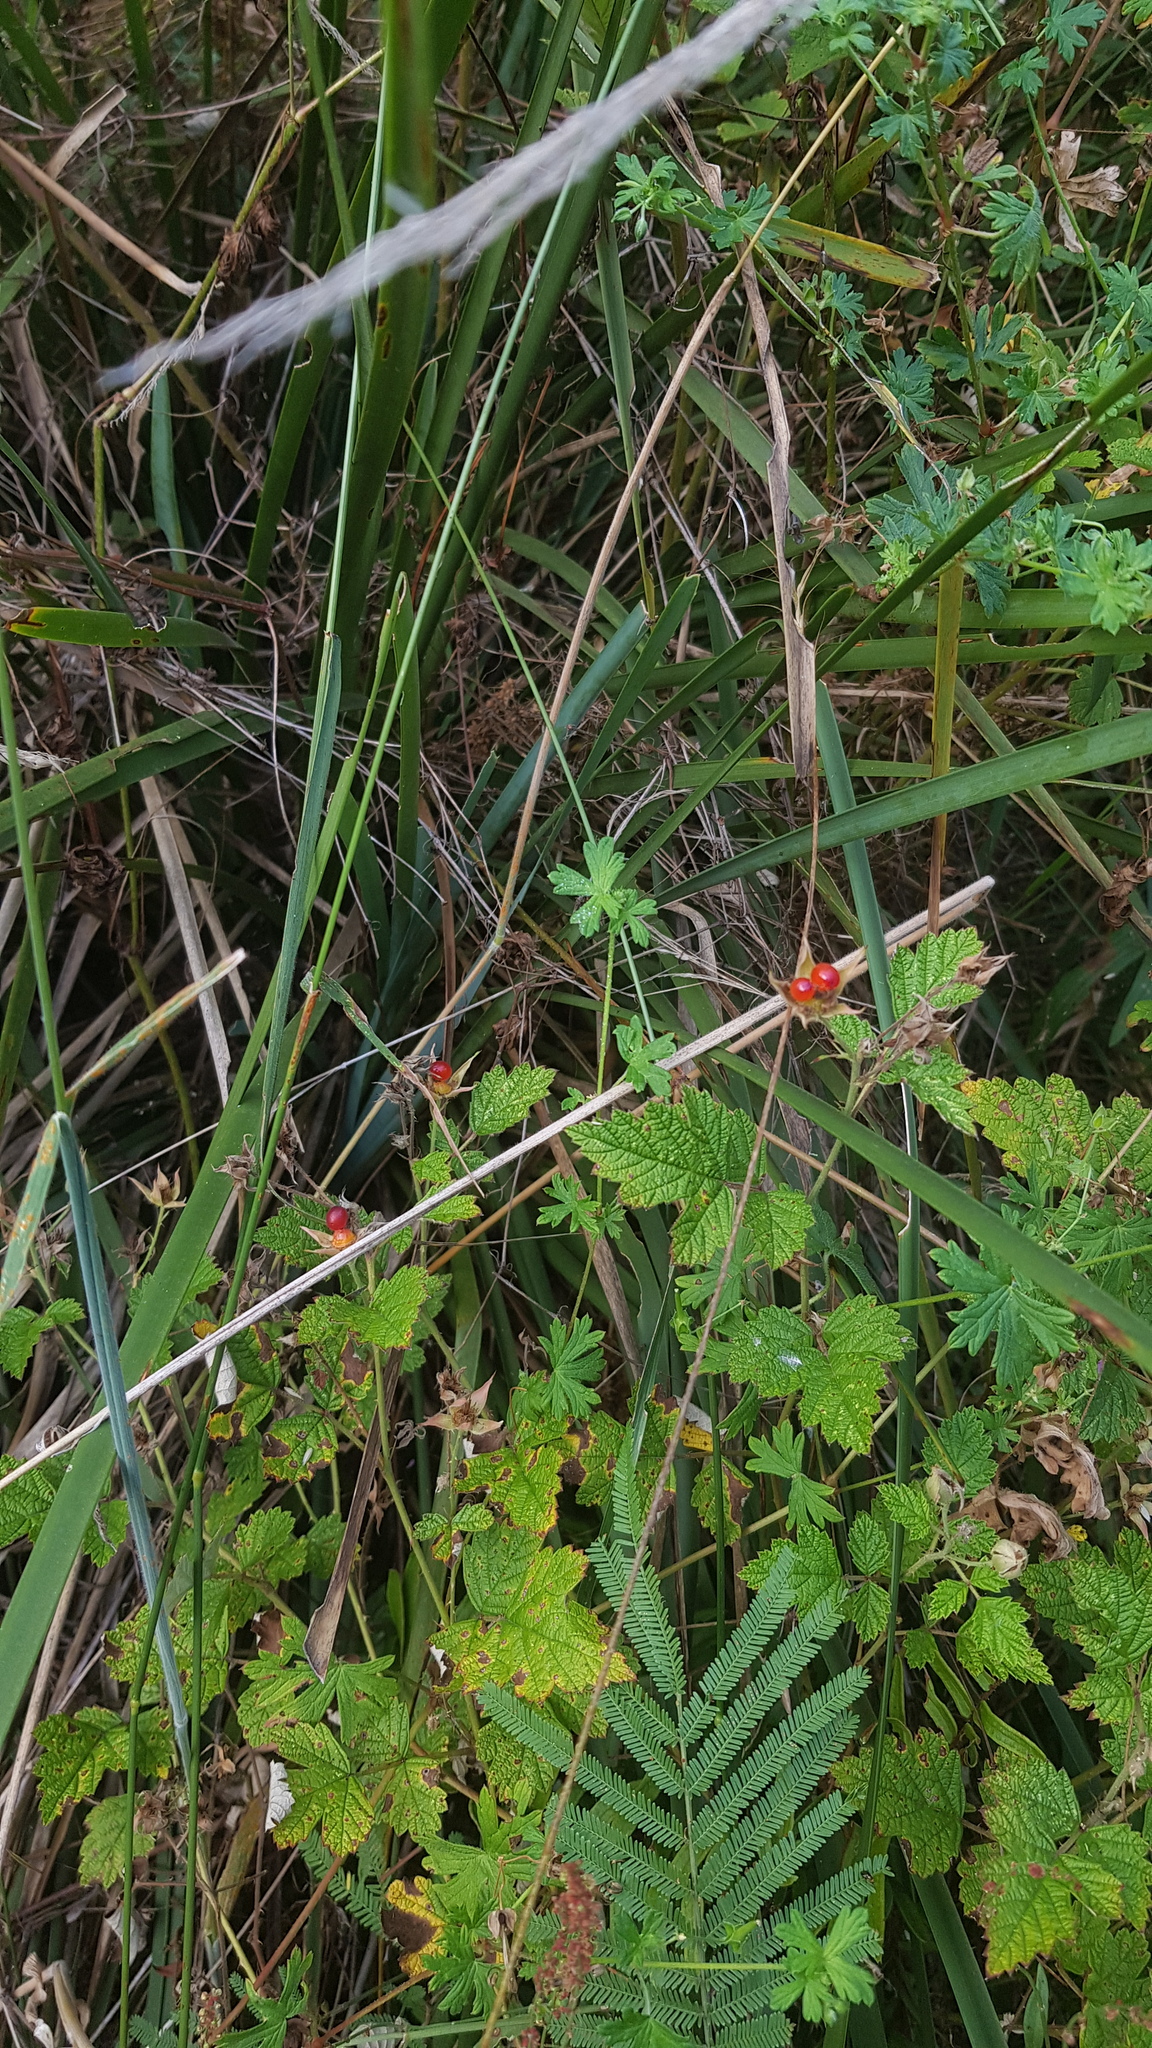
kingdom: Plantae
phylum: Tracheophyta
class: Magnoliopsida
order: Rosales
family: Rosaceae
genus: Rubus
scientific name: Rubus parvifolius
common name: Threeleaf blackberry
